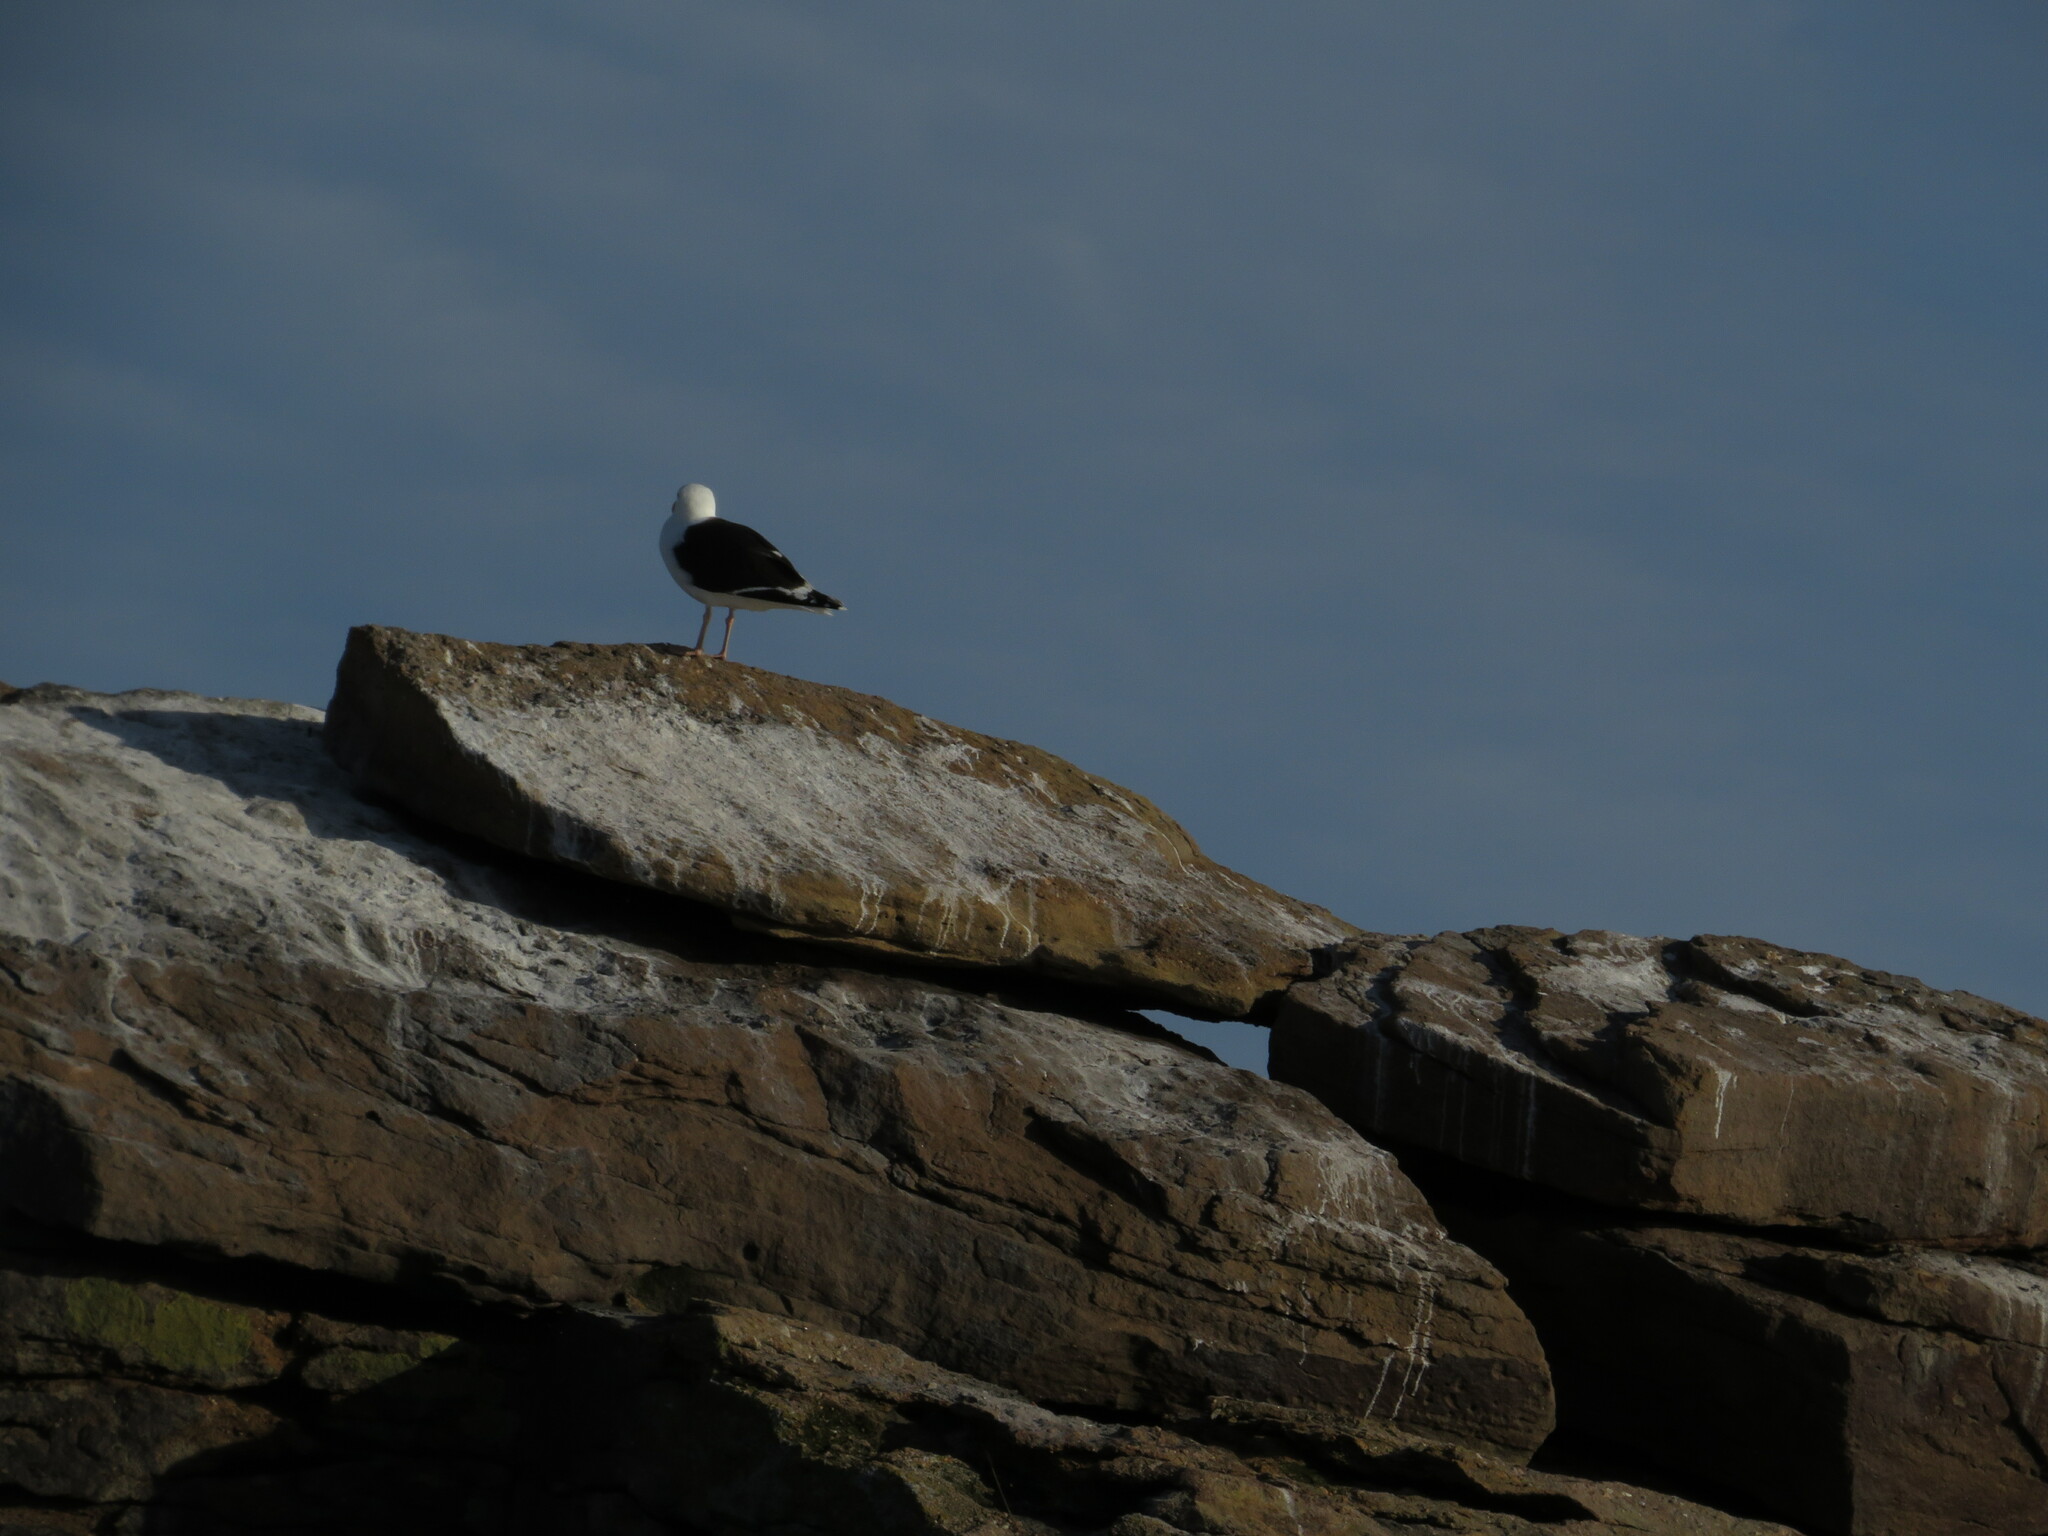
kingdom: Animalia
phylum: Chordata
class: Aves
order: Charadriiformes
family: Laridae
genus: Larus
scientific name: Larus marinus
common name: Great black-backed gull
